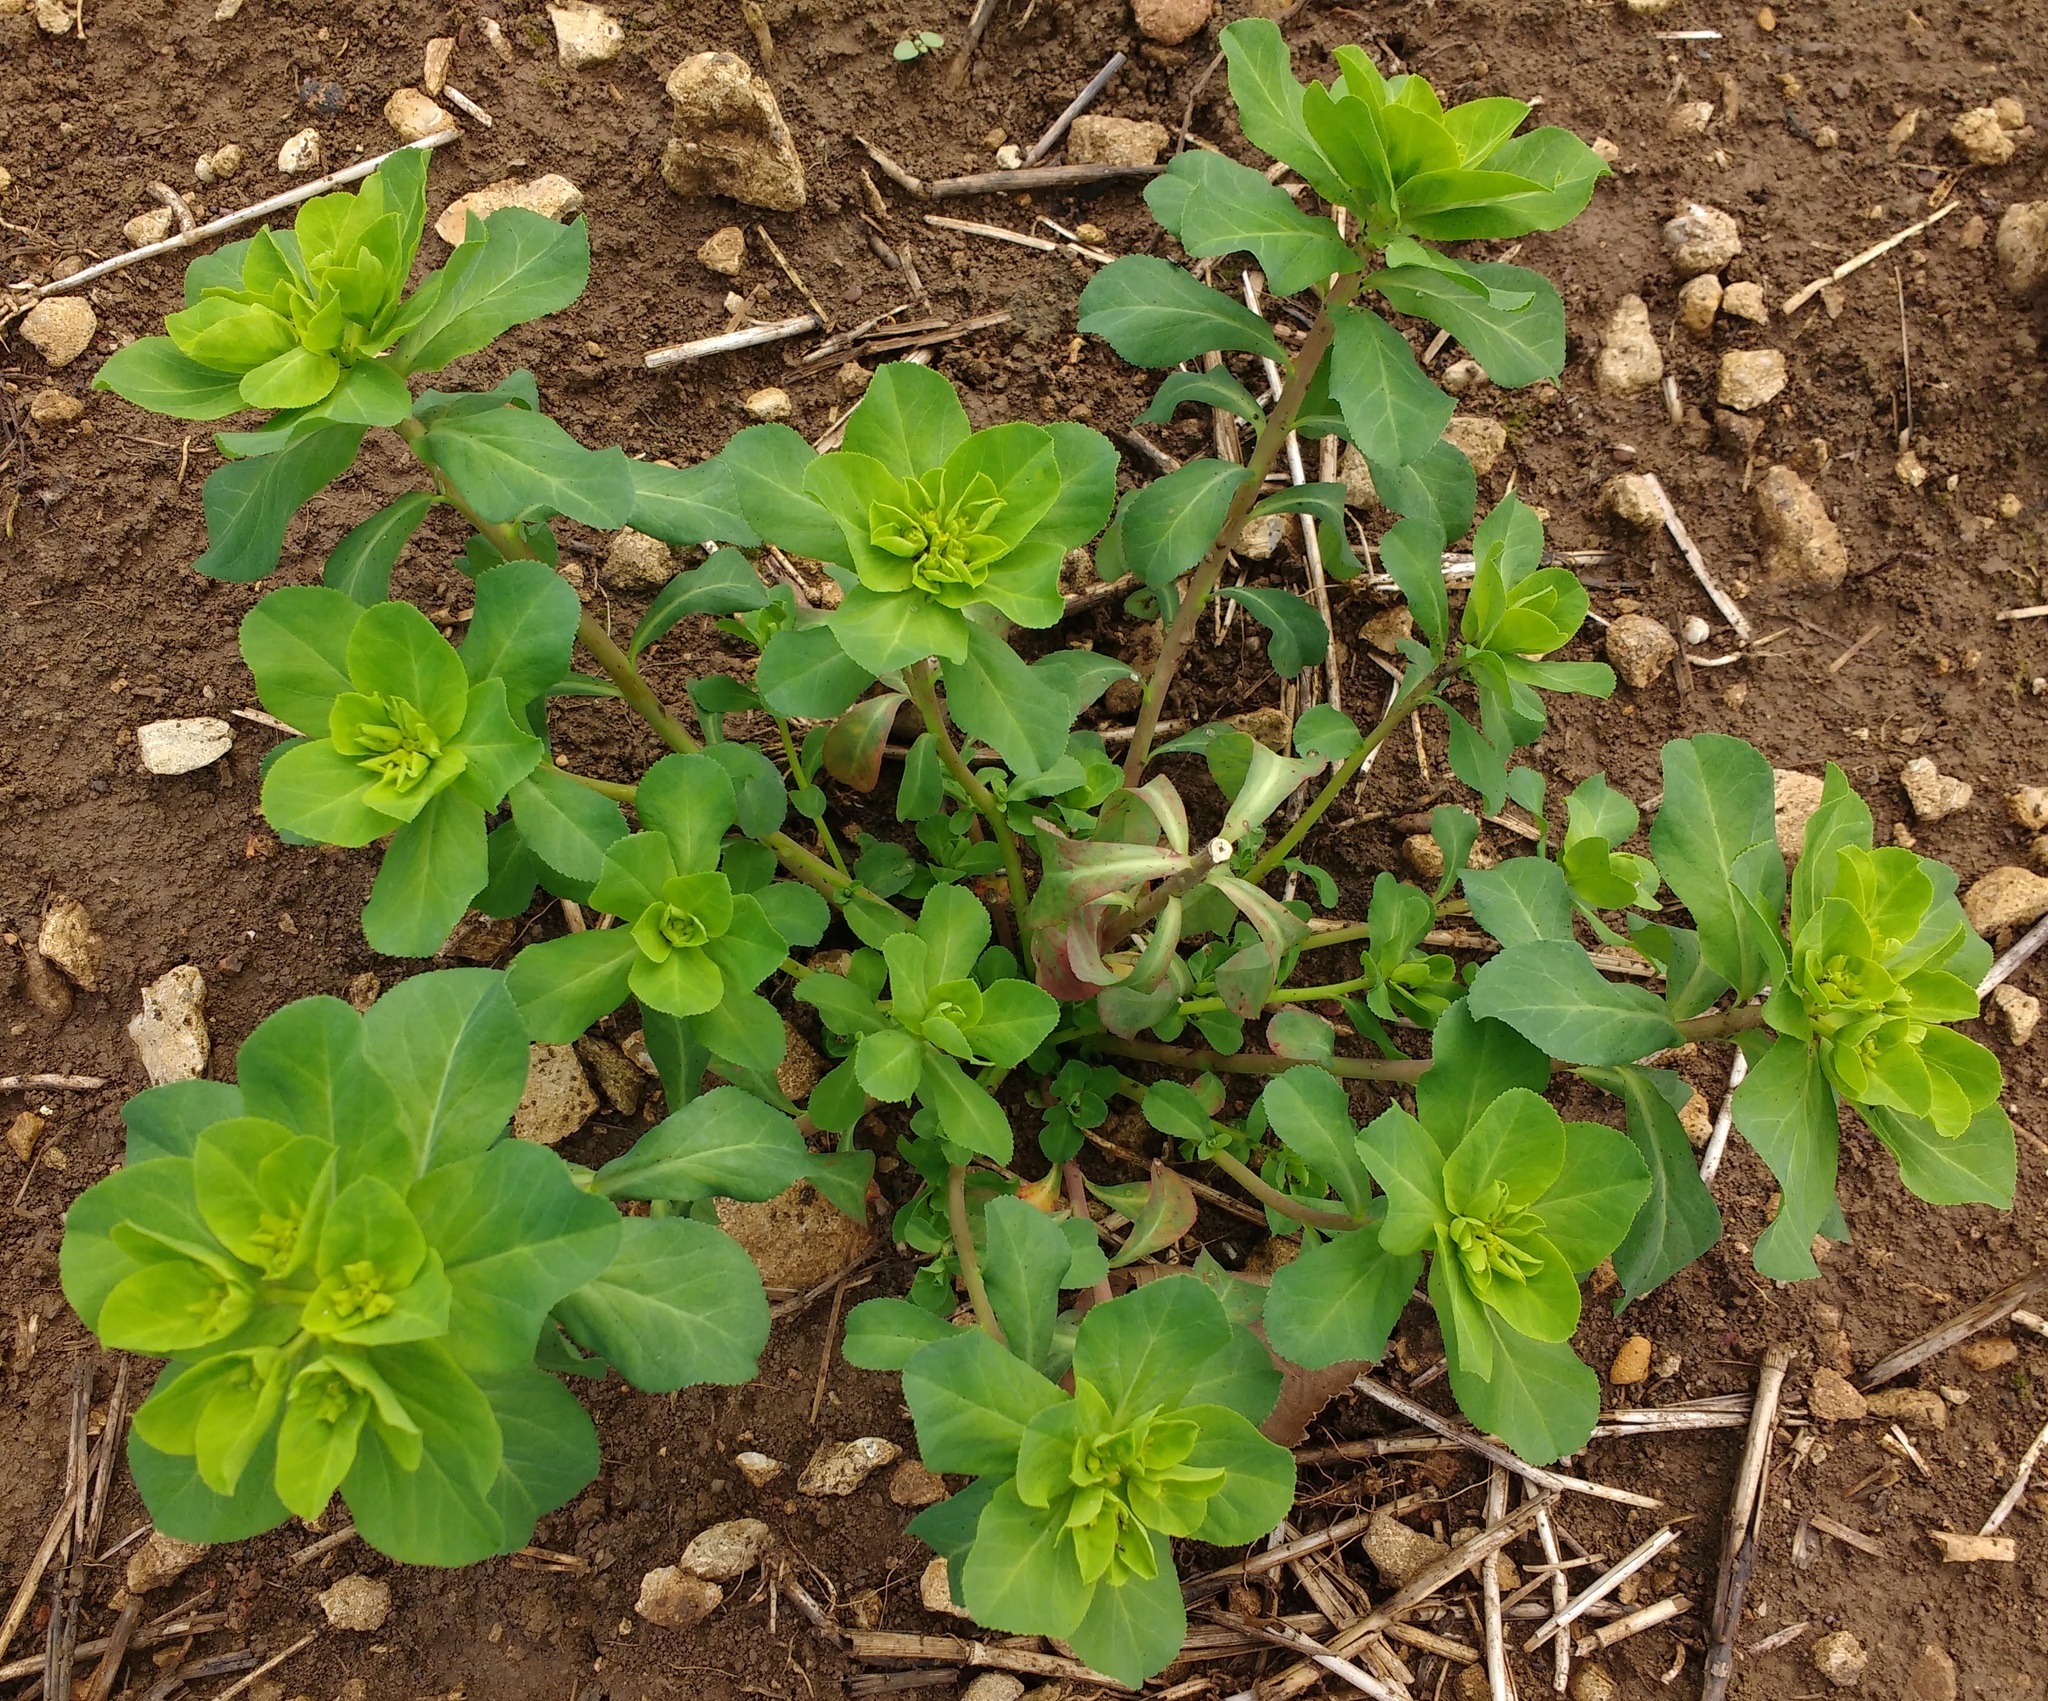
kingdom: Plantae
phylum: Tracheophyta
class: Magnoliopsida
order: Malpighiales
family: Euphorbiaceae
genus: Euphorbia
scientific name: Euphorbia helioscopia
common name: Sun spurge
